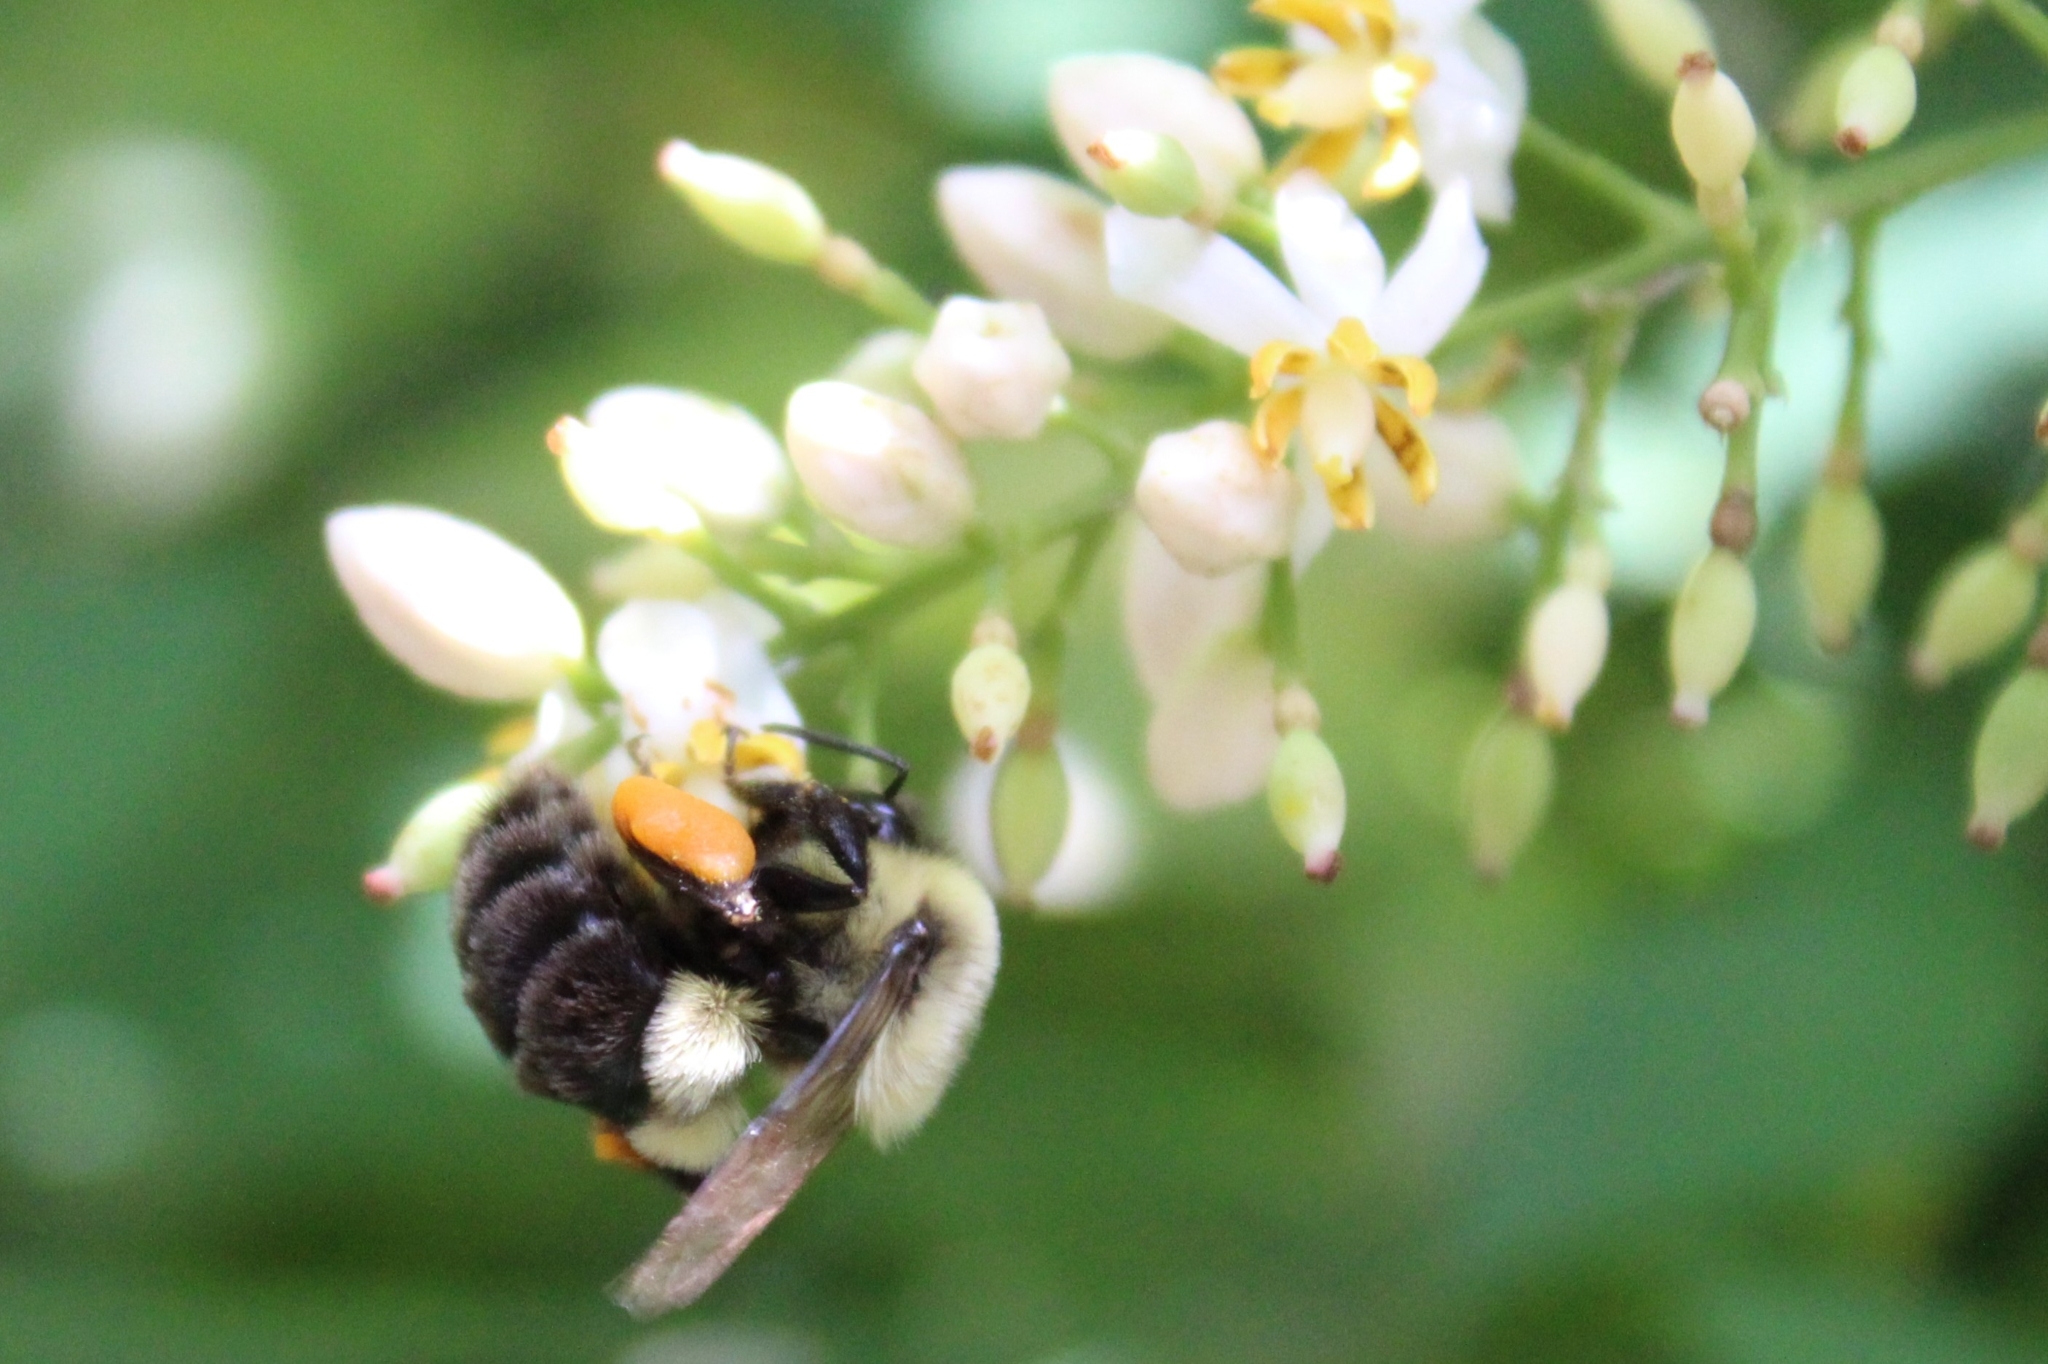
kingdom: Animalia
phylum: Arthropoda
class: Insecta
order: Hymenoptera
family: Apidae
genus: Bombus
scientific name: Bombus impatiens
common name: Common eastern bumble bee
